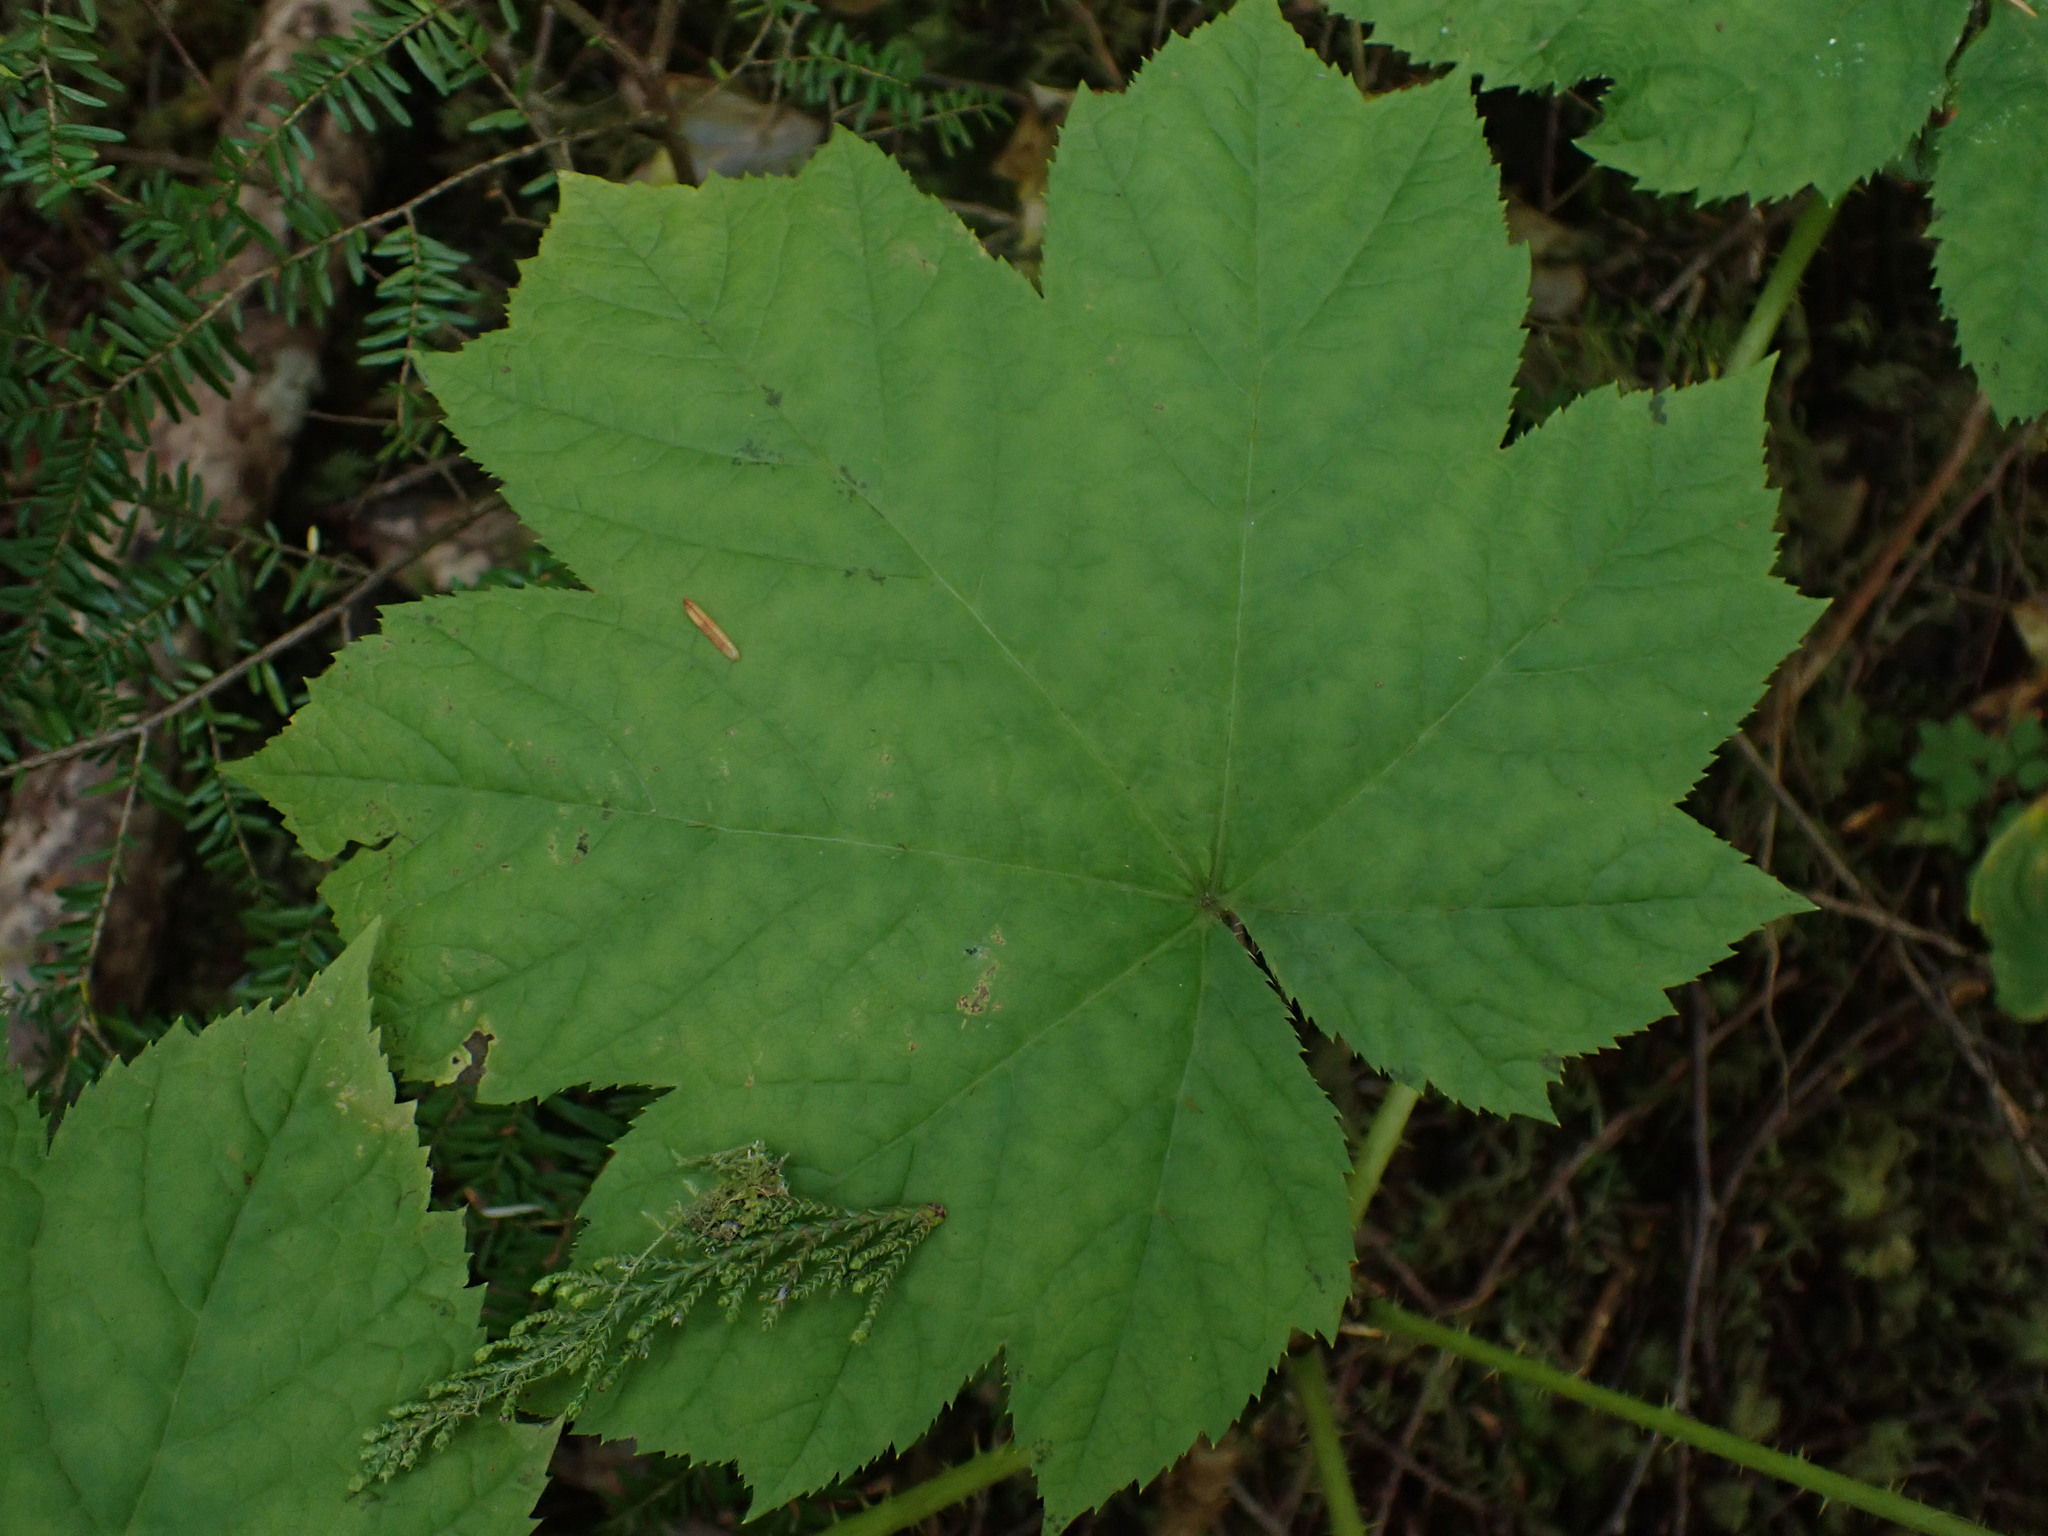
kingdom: Plantae
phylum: Tracheophyta
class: Magnoliopsida
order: Apiales
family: Araliaceae
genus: Oplopanax
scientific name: Oplopanax horridus
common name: Devil's walking-stick
